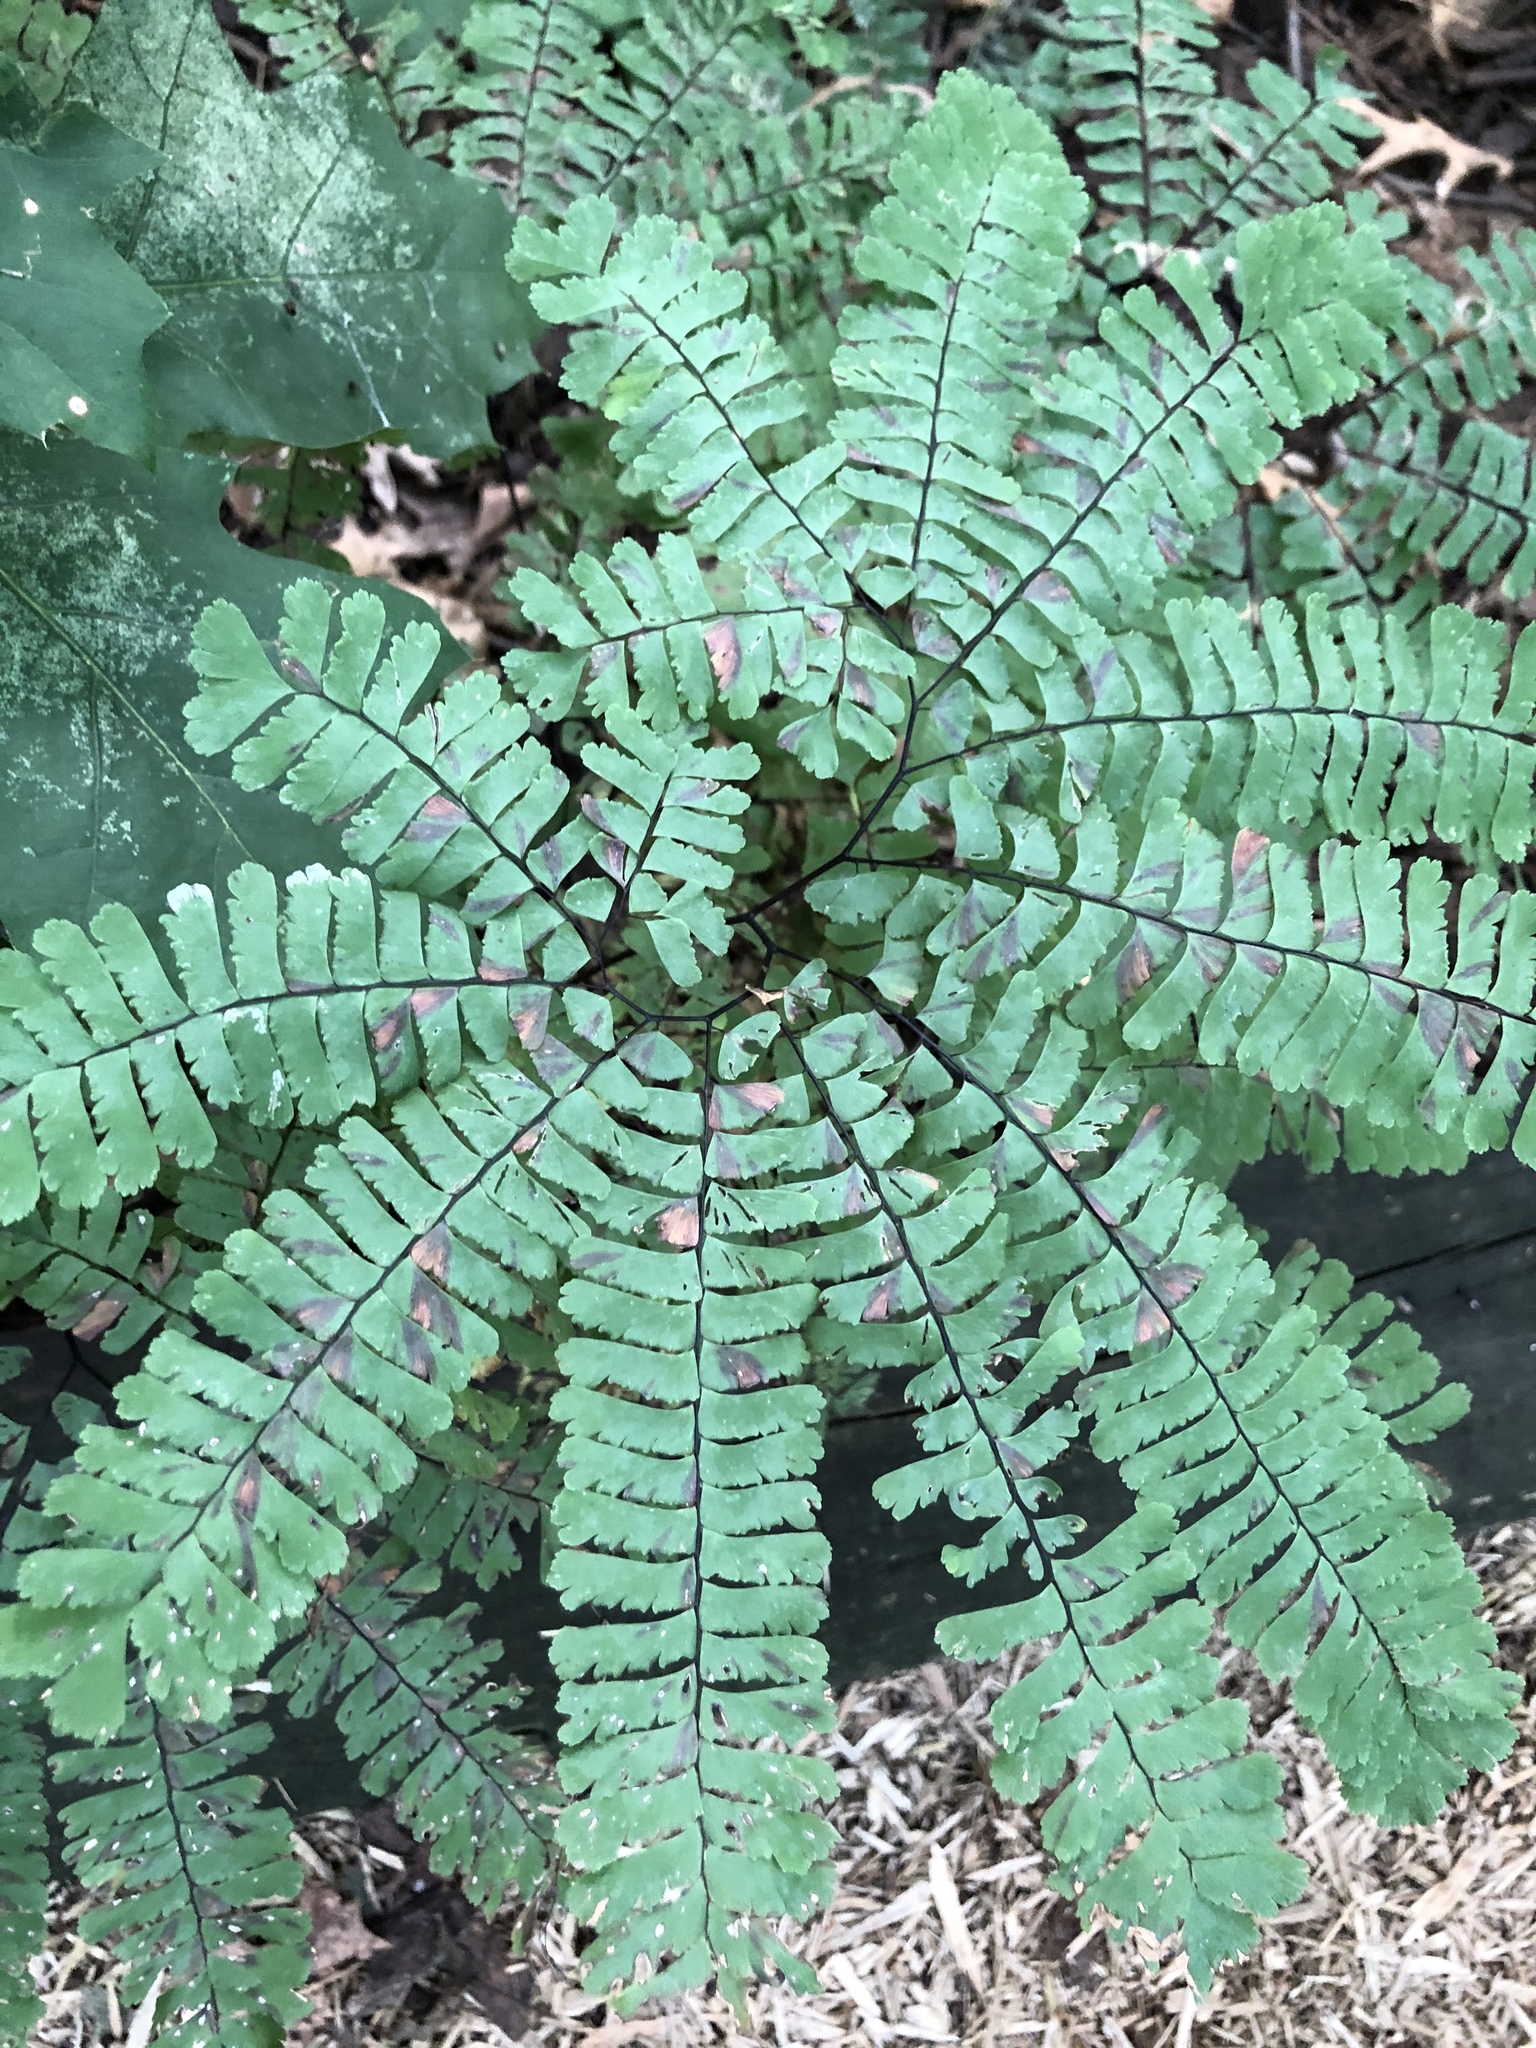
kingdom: Plantae
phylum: Tracheophyta
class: Polypodiopsida
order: Polypodiales
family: Pteridaceae
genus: Adiantum
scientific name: Adiantum pedatum
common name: Five-finger fern
